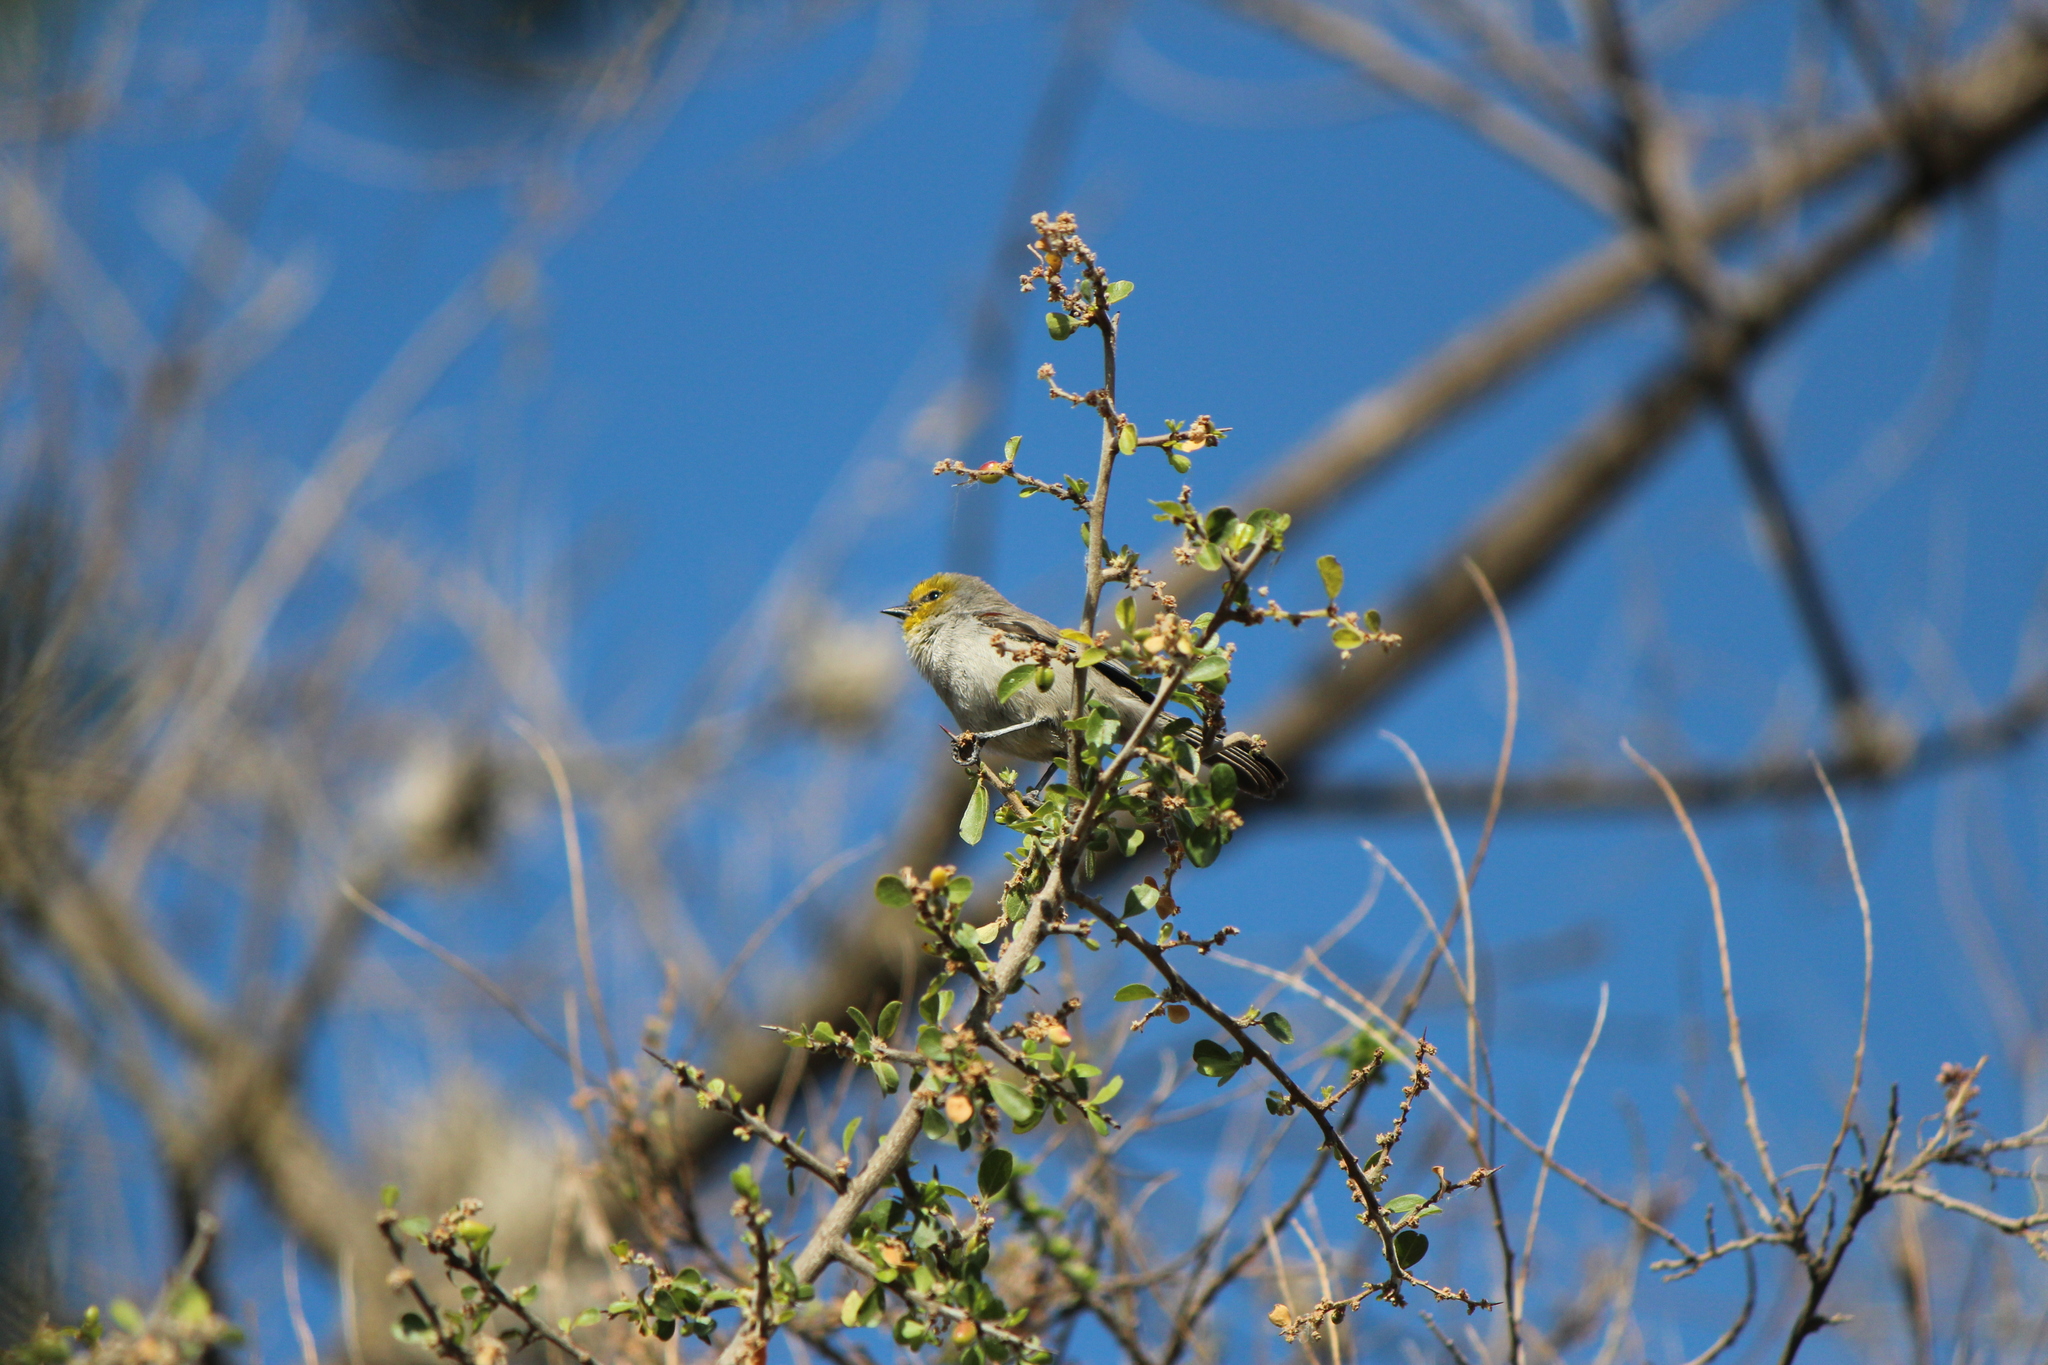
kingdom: Animalia
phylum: Chordata
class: Aves
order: Passeriformes
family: Remizidae
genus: Auriparus
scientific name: Auriparus flaviceps
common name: Verdin
